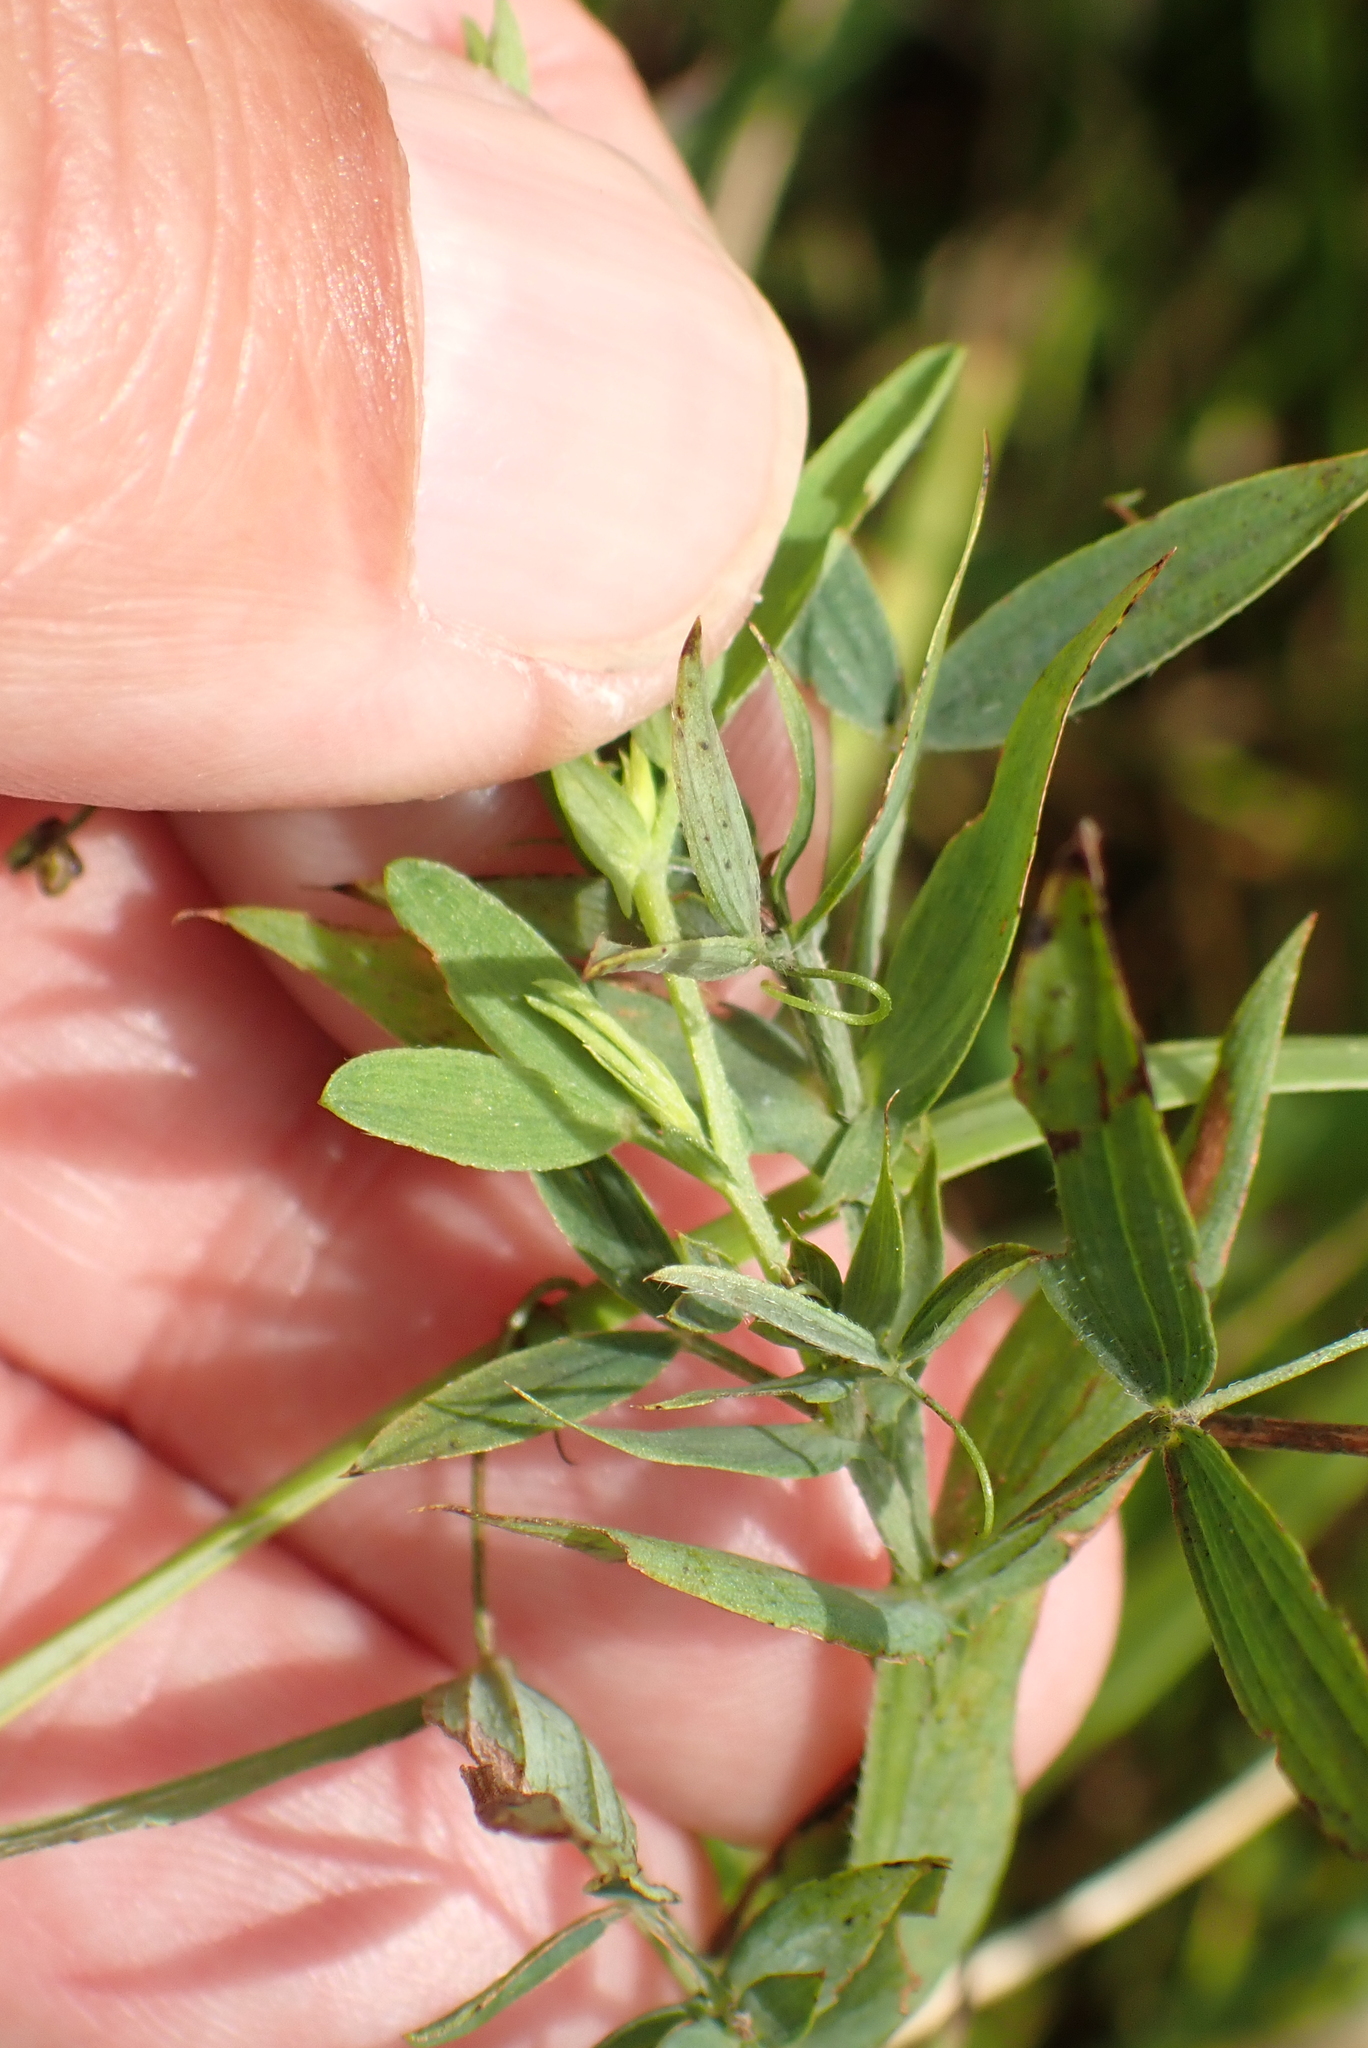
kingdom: Plantae
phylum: Tracheophyta
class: Magnoliopsida
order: Fabales
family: Fabaceae
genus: Lathyrus
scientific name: Lathyrus pratensis
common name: Meadow vetchling
